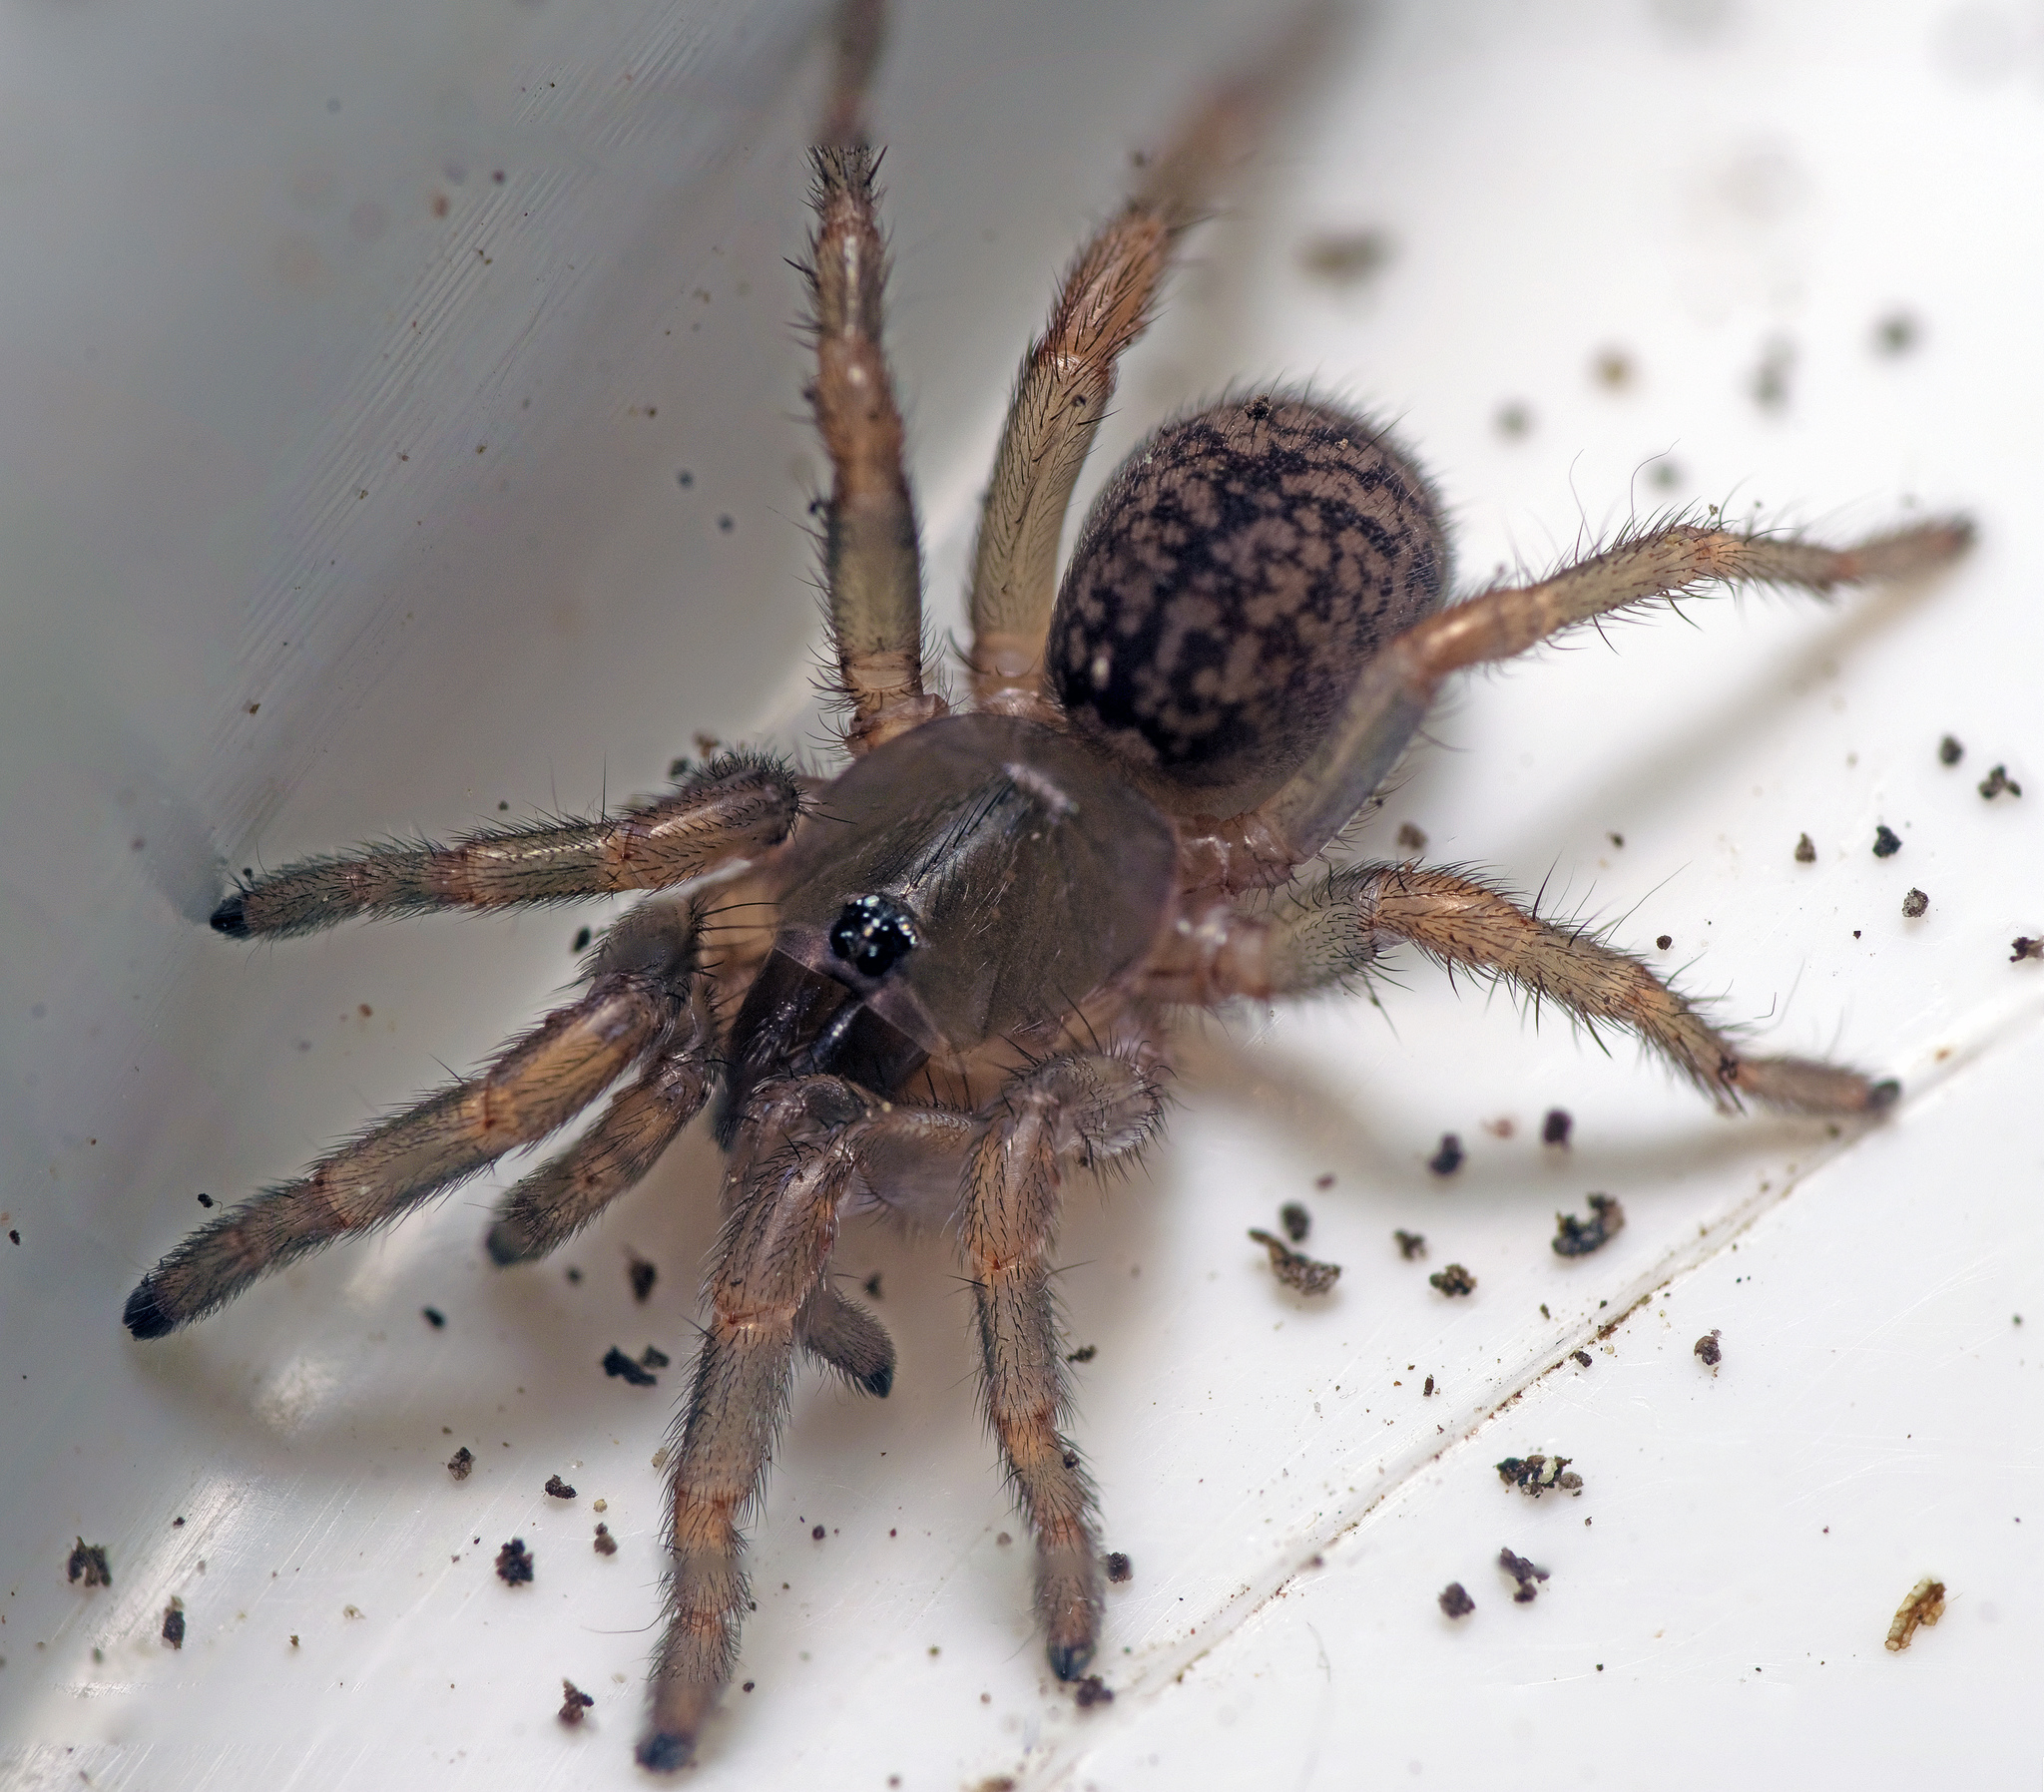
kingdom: Animalia
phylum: Arthropoda
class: Arachnida
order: Araneae
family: Barychelidae
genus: Seqocrypta
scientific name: Seqocrypta jakara
